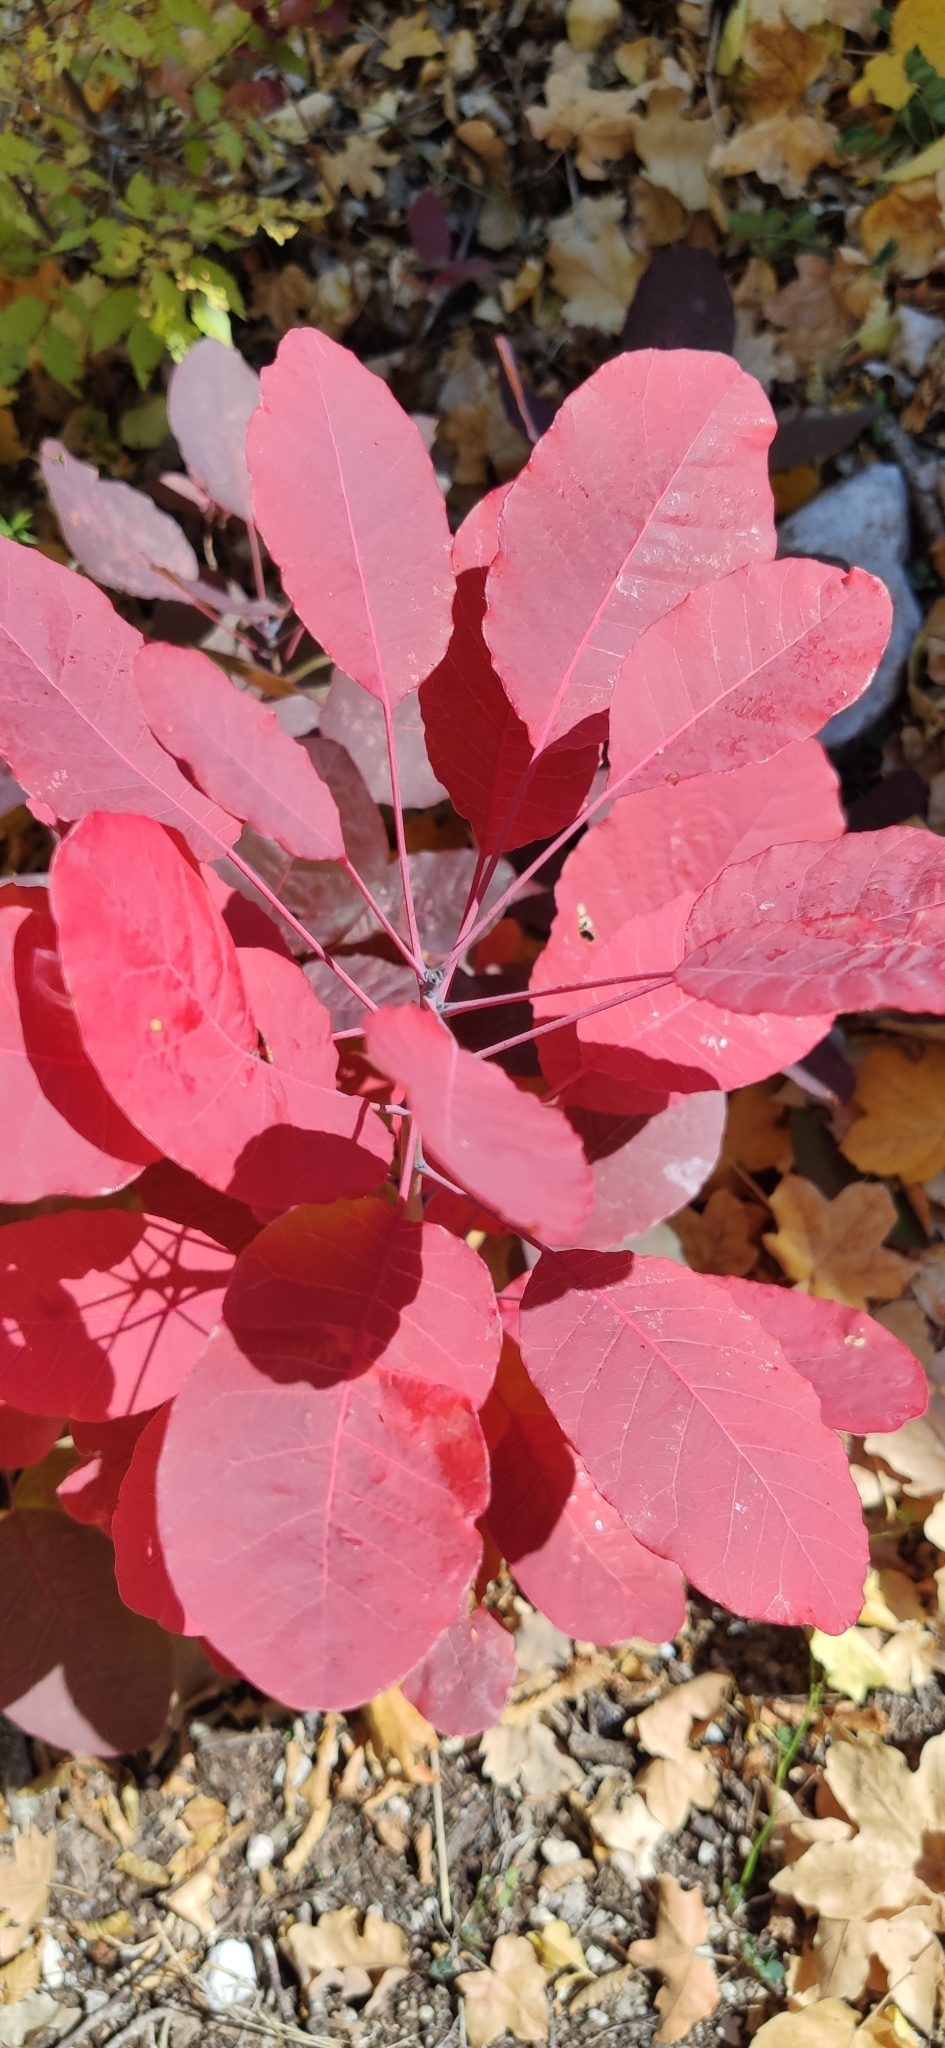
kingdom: Plantae
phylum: Tracheophyta
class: Magnoliopsida
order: Sapindales
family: Anacardiaceae
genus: Cotinus
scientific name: Cotinus coggygria
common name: Smoke-tree
